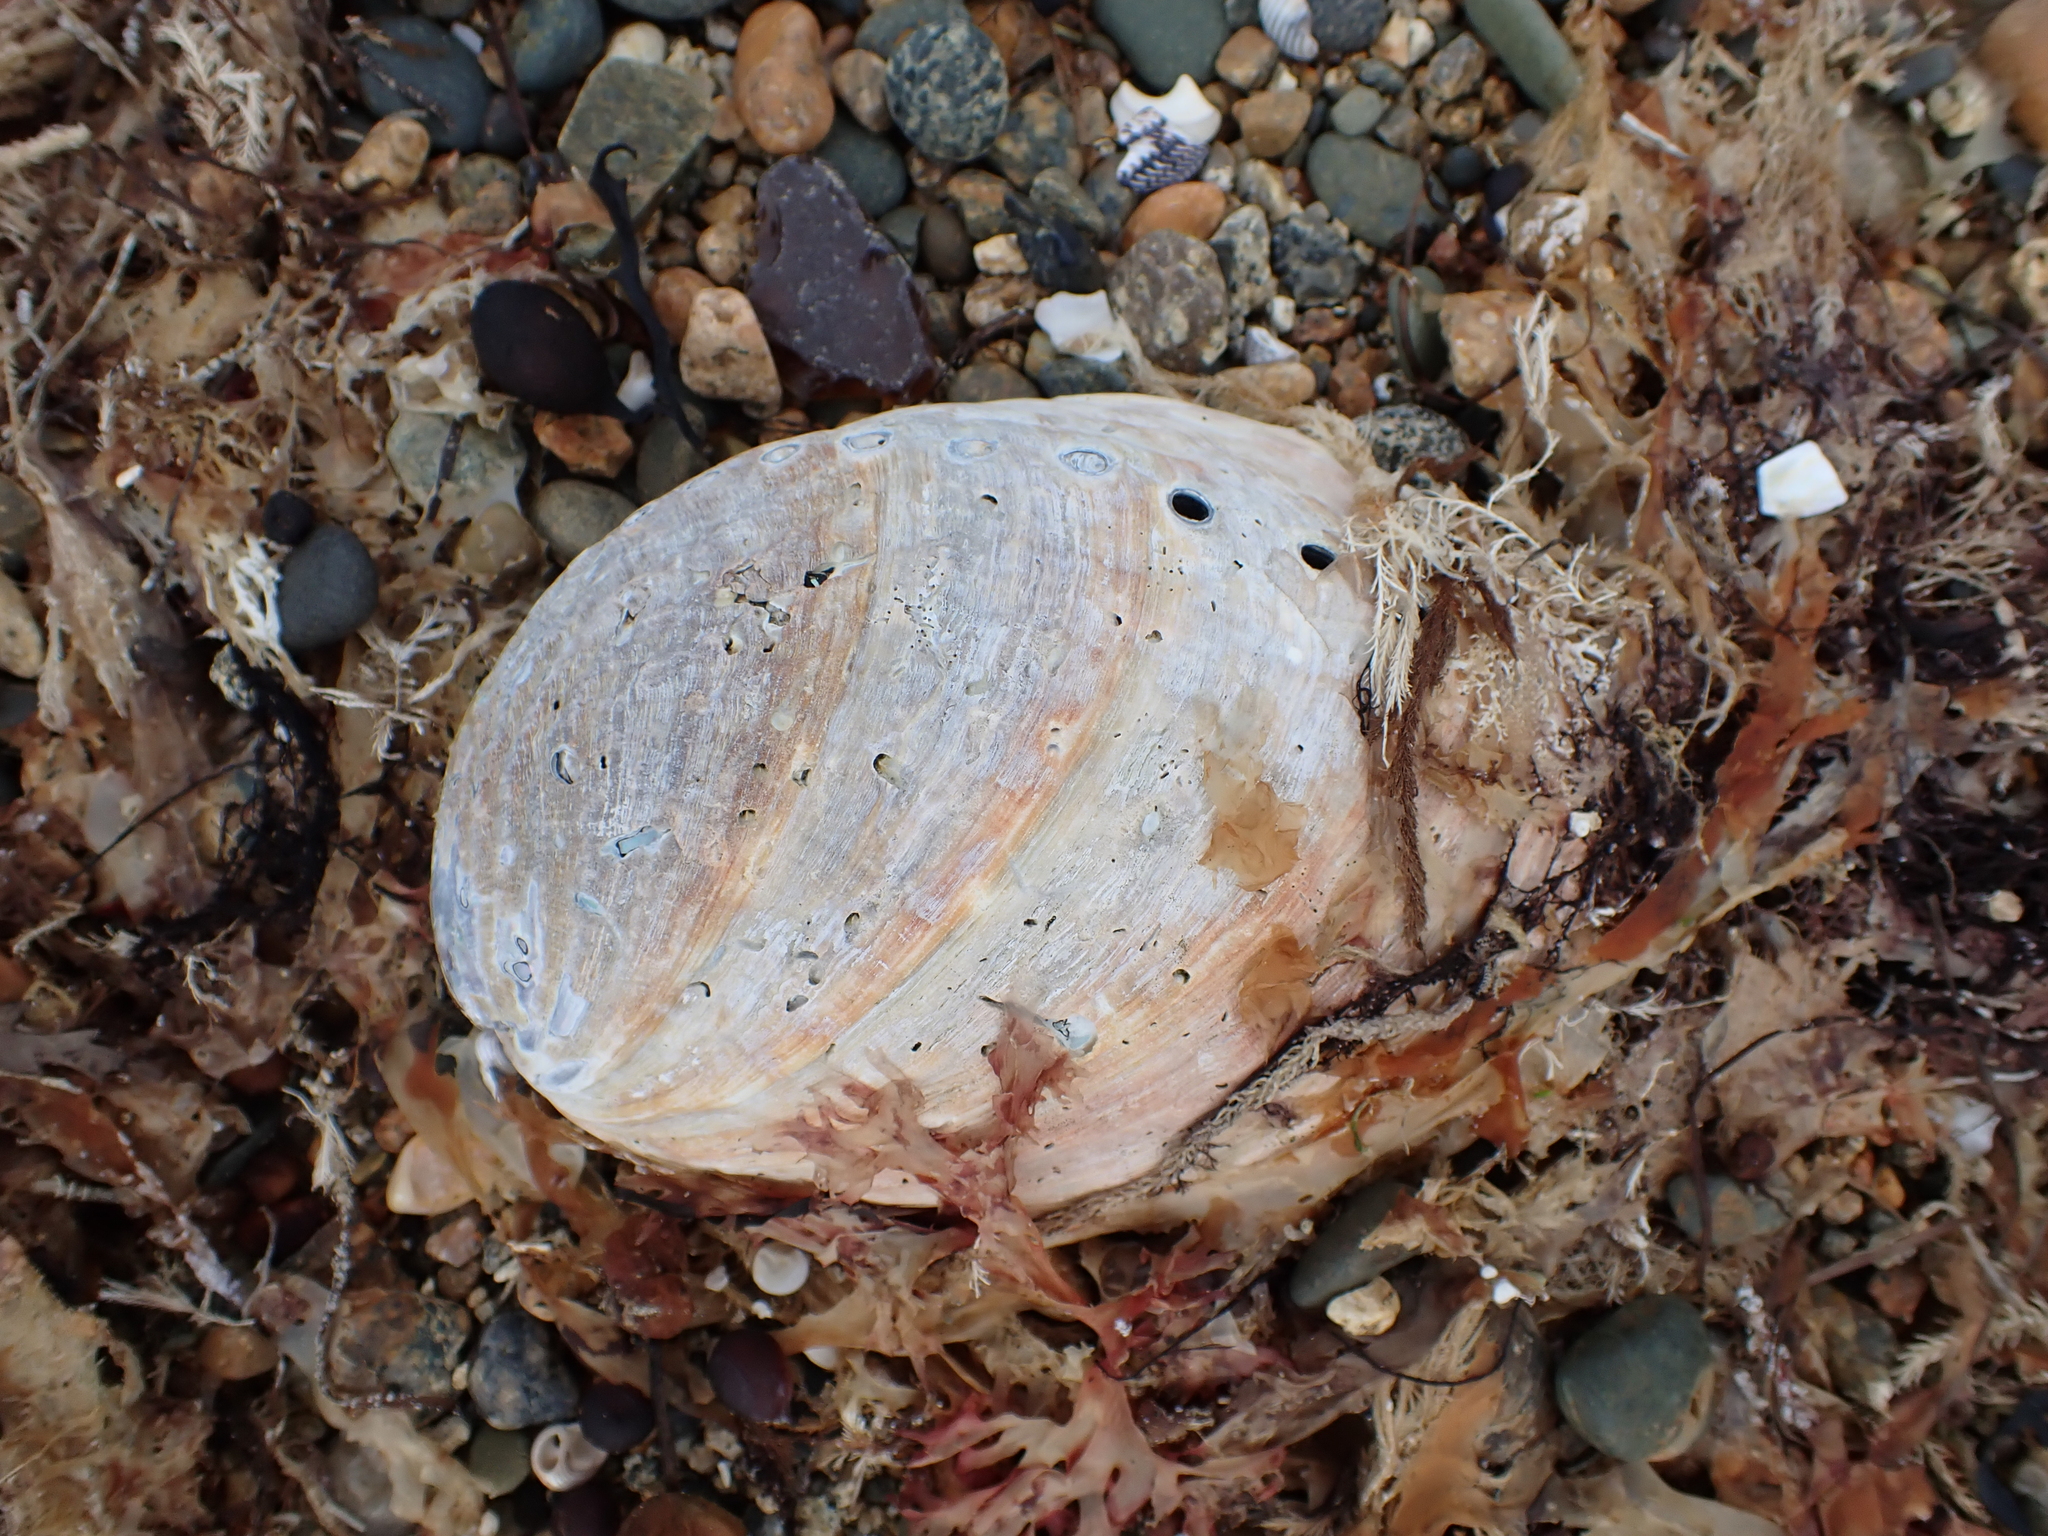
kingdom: Animalia
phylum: Mollusca
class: Gastropoda
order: Lepetellida
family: Haliotidae
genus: Haliotis
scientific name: Haliotis iris
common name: Abalone
